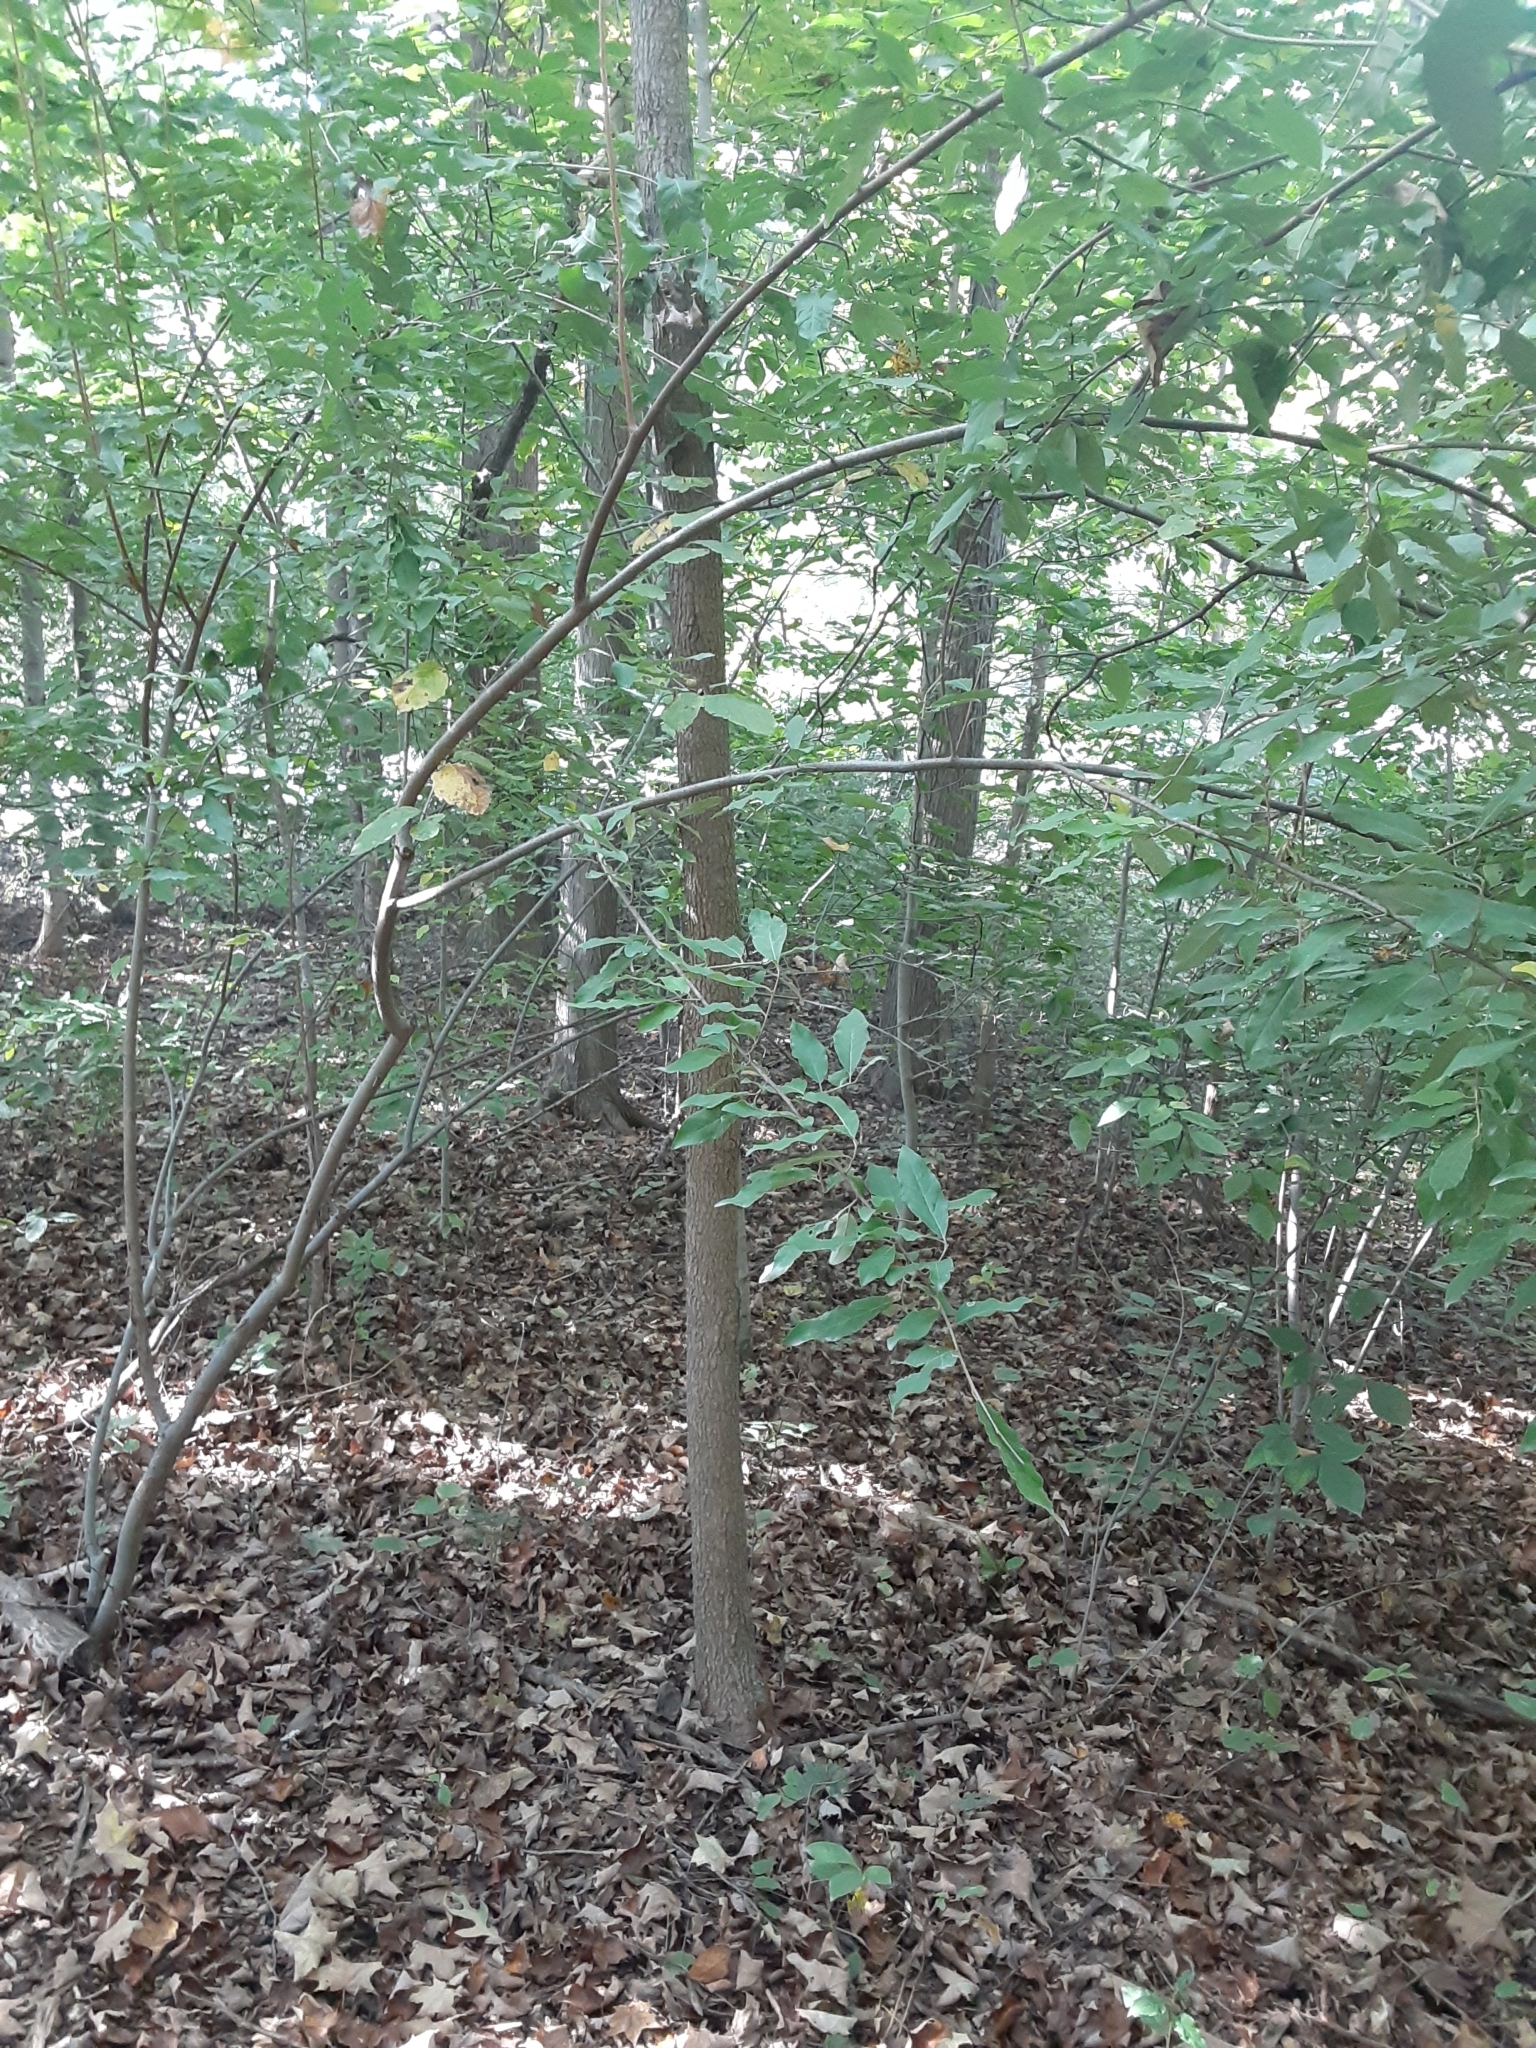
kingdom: Plantae
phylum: Tracheophyta
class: Magnoliopsida
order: Rosales
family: Elaeagnaceae
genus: Elaeagnus
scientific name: Elaeagnus umbellata
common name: Autumn olive
